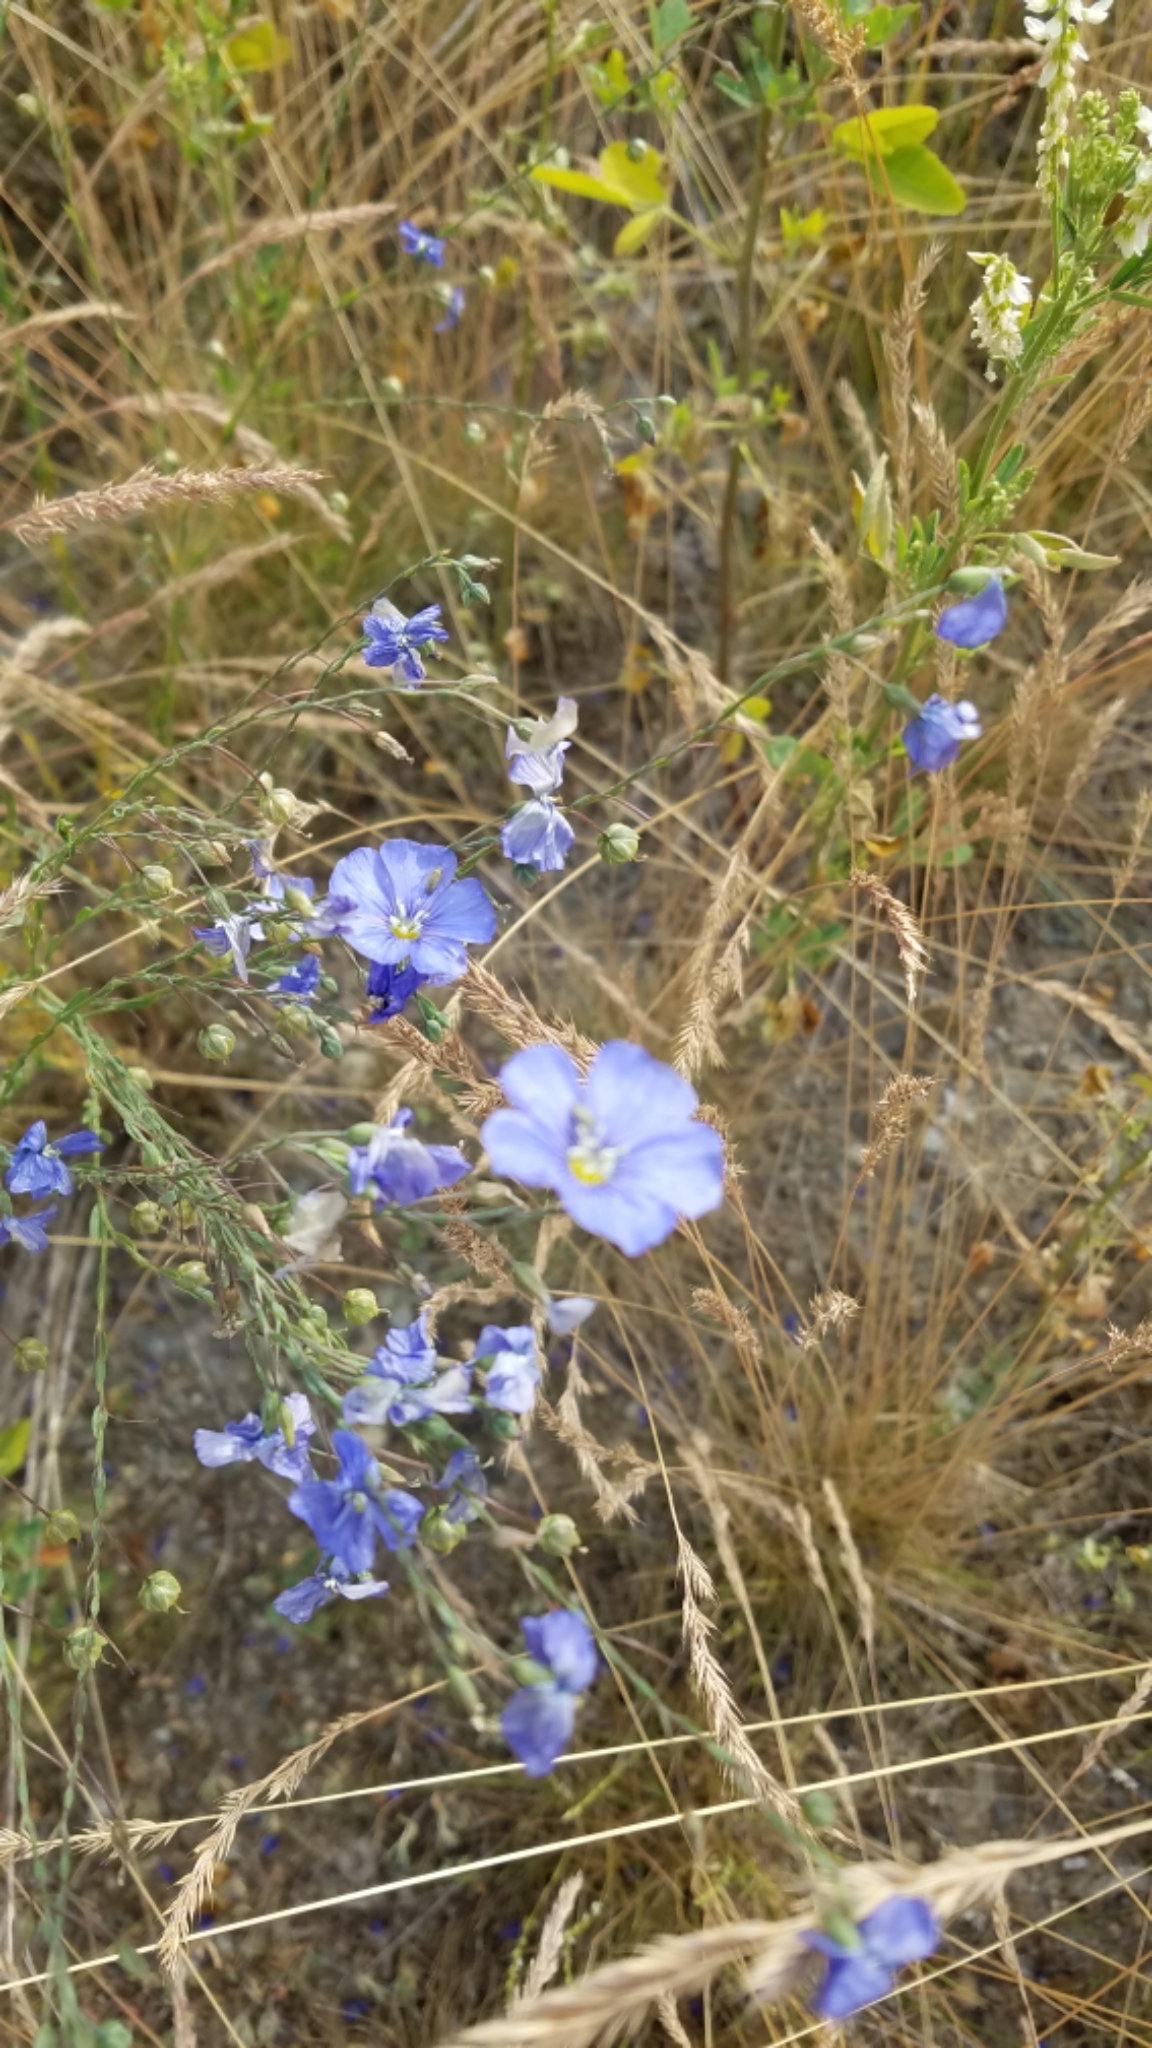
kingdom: Plantae
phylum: Tracheophyta
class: Magnoliopsida
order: Malpighiales
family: Linaceae
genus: Linum
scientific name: Linum lewisii
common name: Prairie flax
